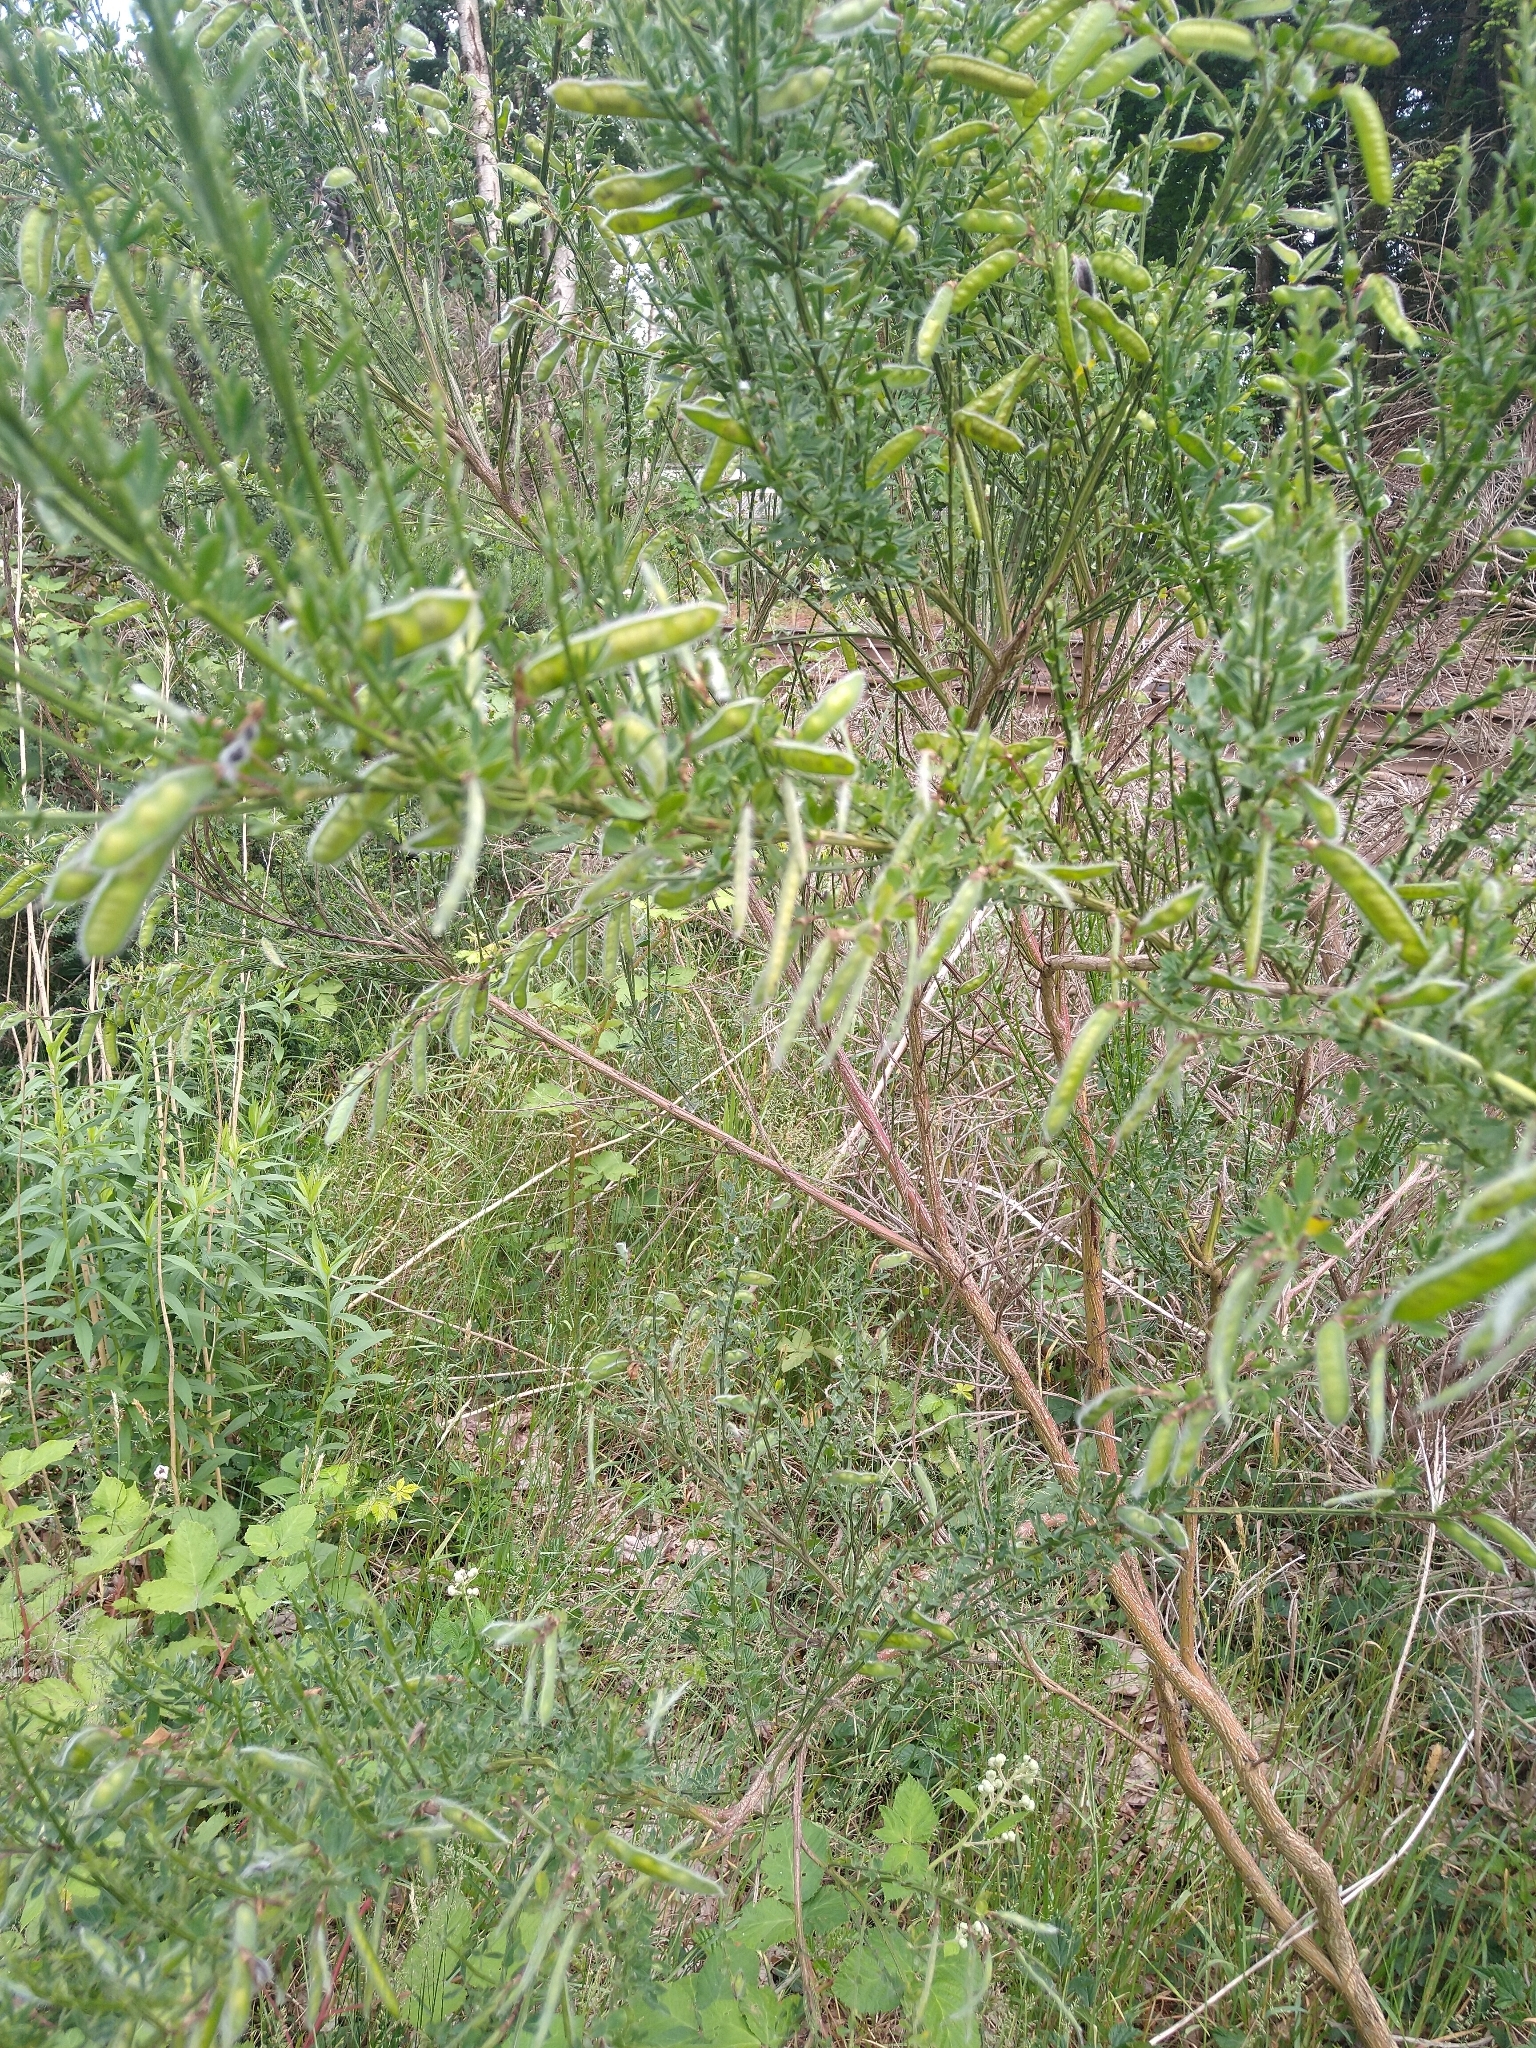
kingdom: Plantae
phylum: Tracheophyta
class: Magnoliopsida
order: Fabales
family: Fabaceae
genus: Cytisus
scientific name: Cytisus scoparius
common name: Scotch broom
